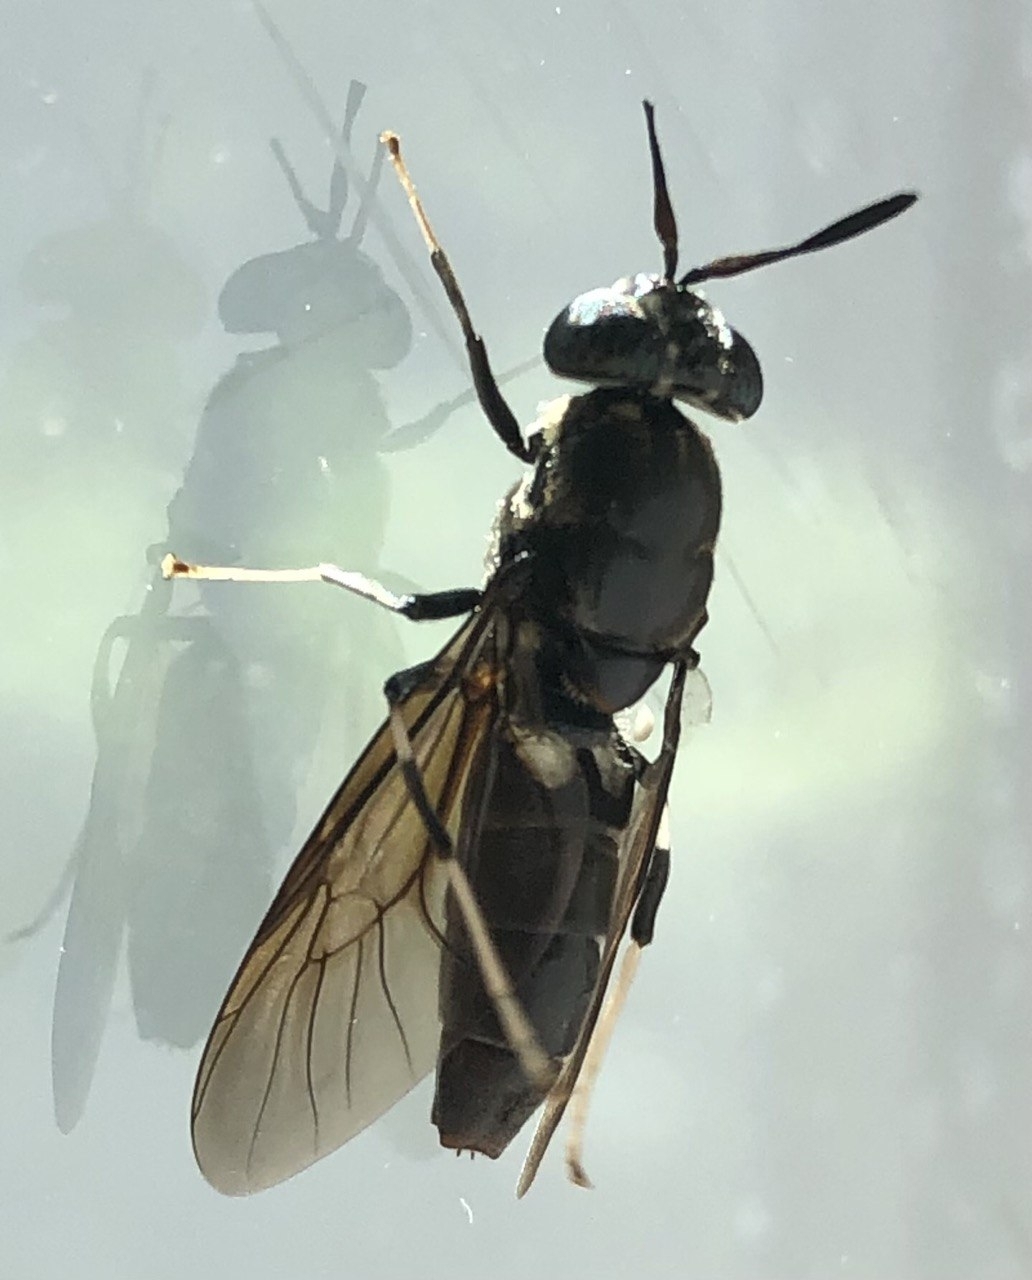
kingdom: Animalia
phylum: Arthropoda
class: Insecta
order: Diptera
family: Stratiomyidae
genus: Hermetia
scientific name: Hermetia illucens
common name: Black soldier fly
